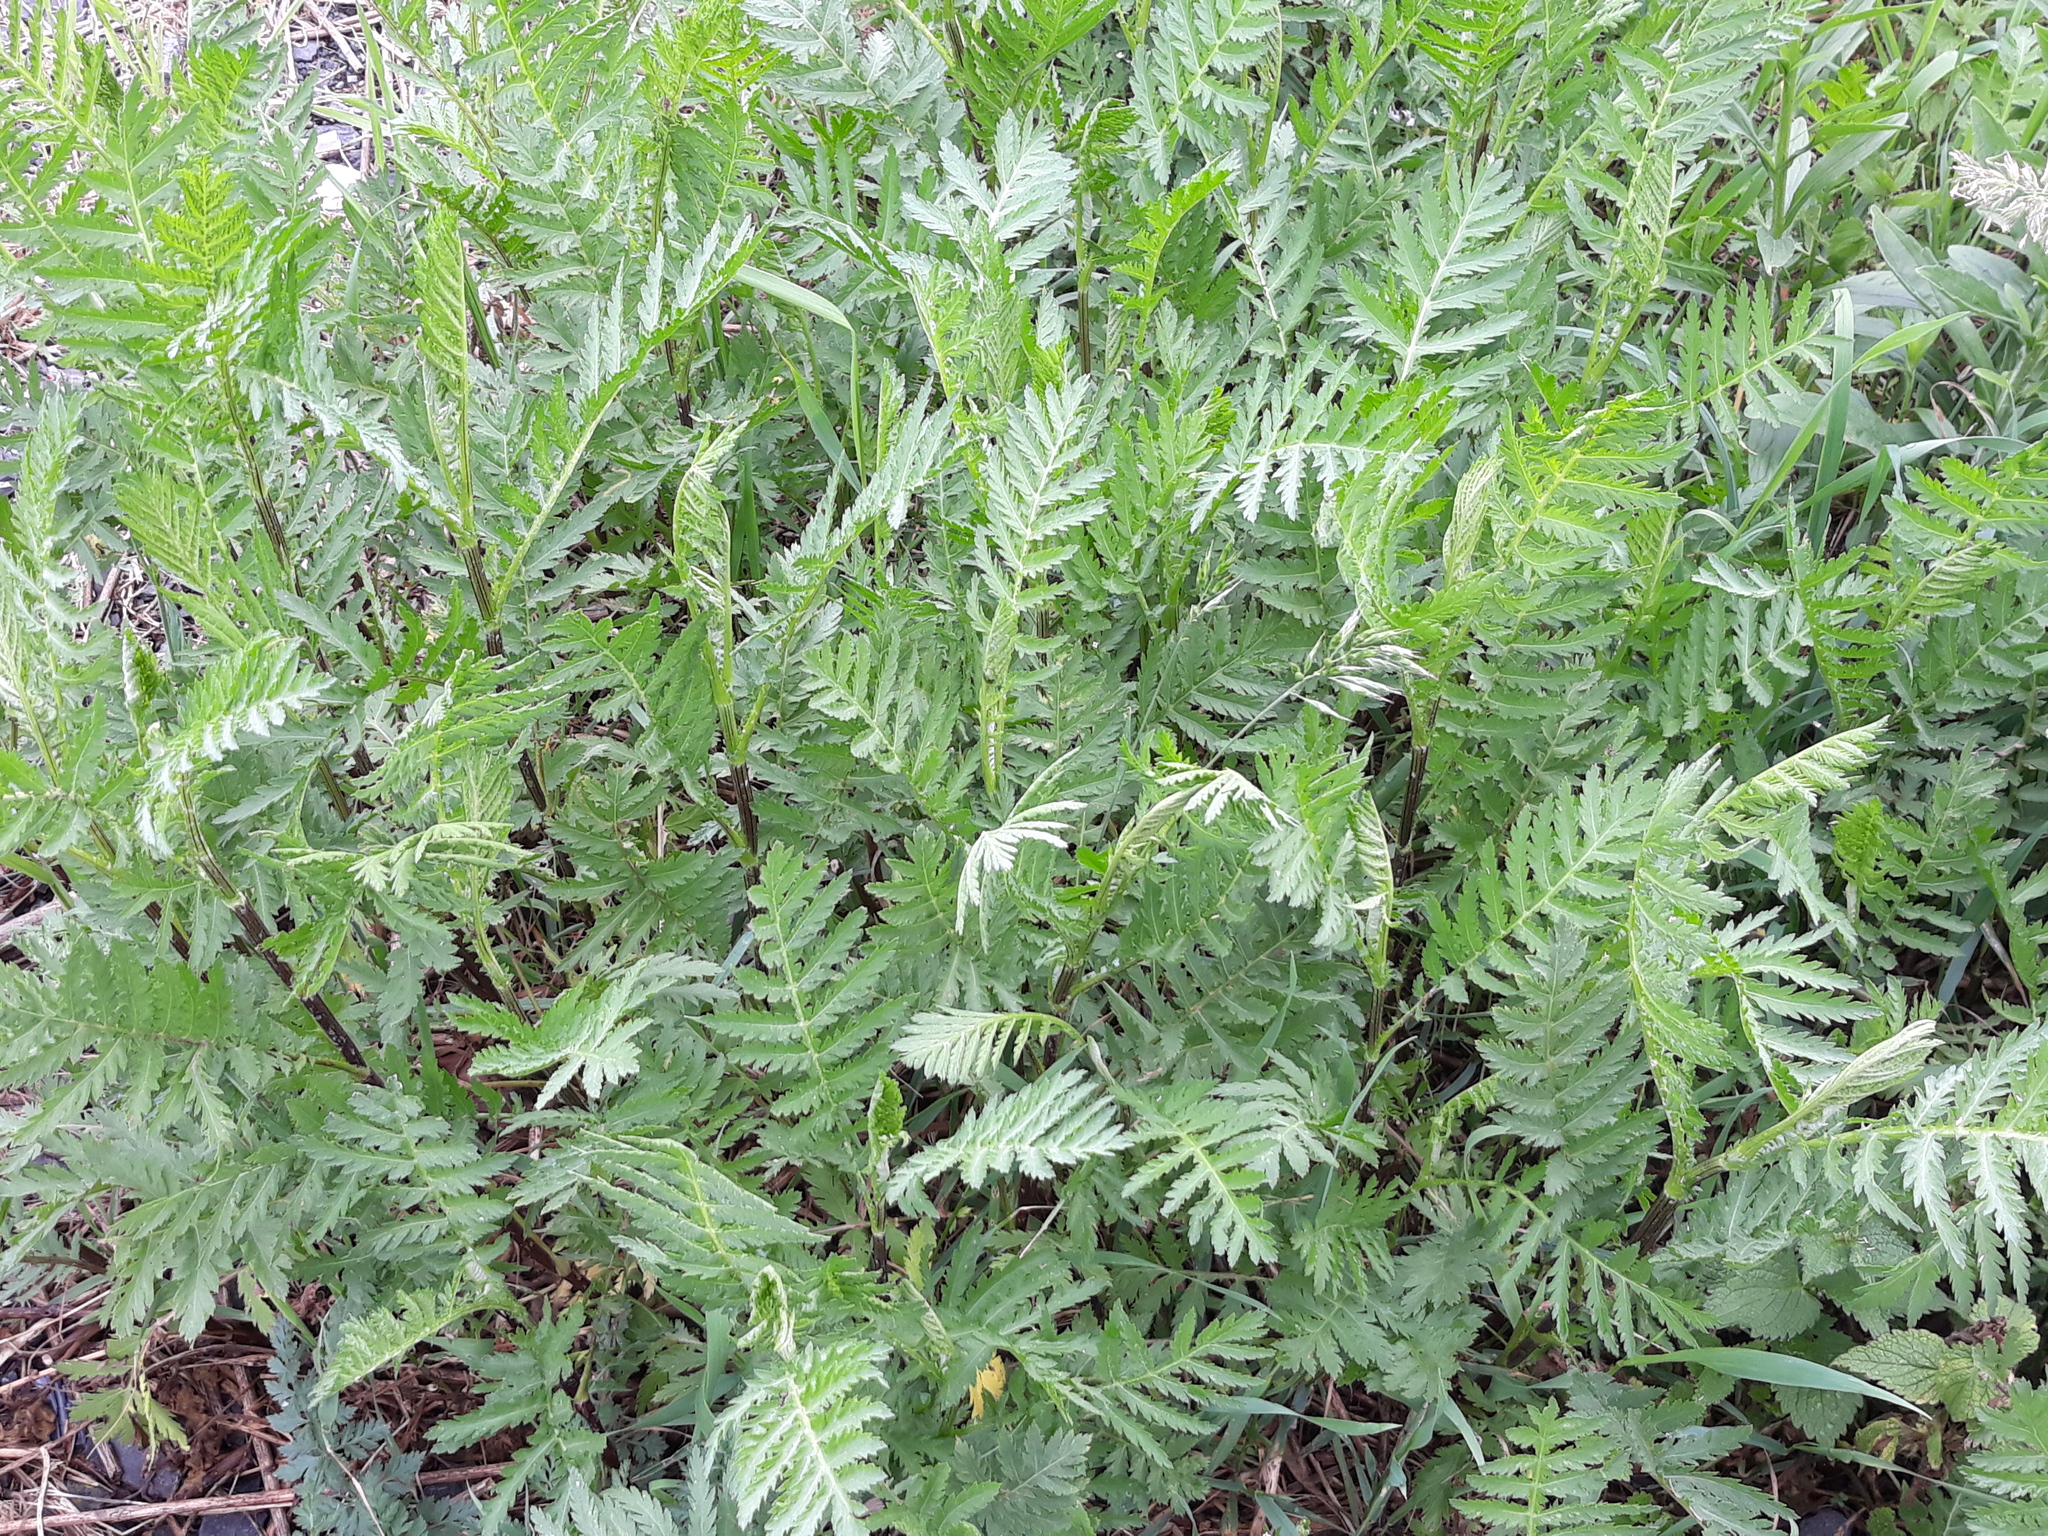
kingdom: Plantae
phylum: Tracheophyta
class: Magnoliopsida
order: Asterales
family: Asteraceae
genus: Tanacetum
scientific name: Tanacetum vulgare
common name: Common tansy
